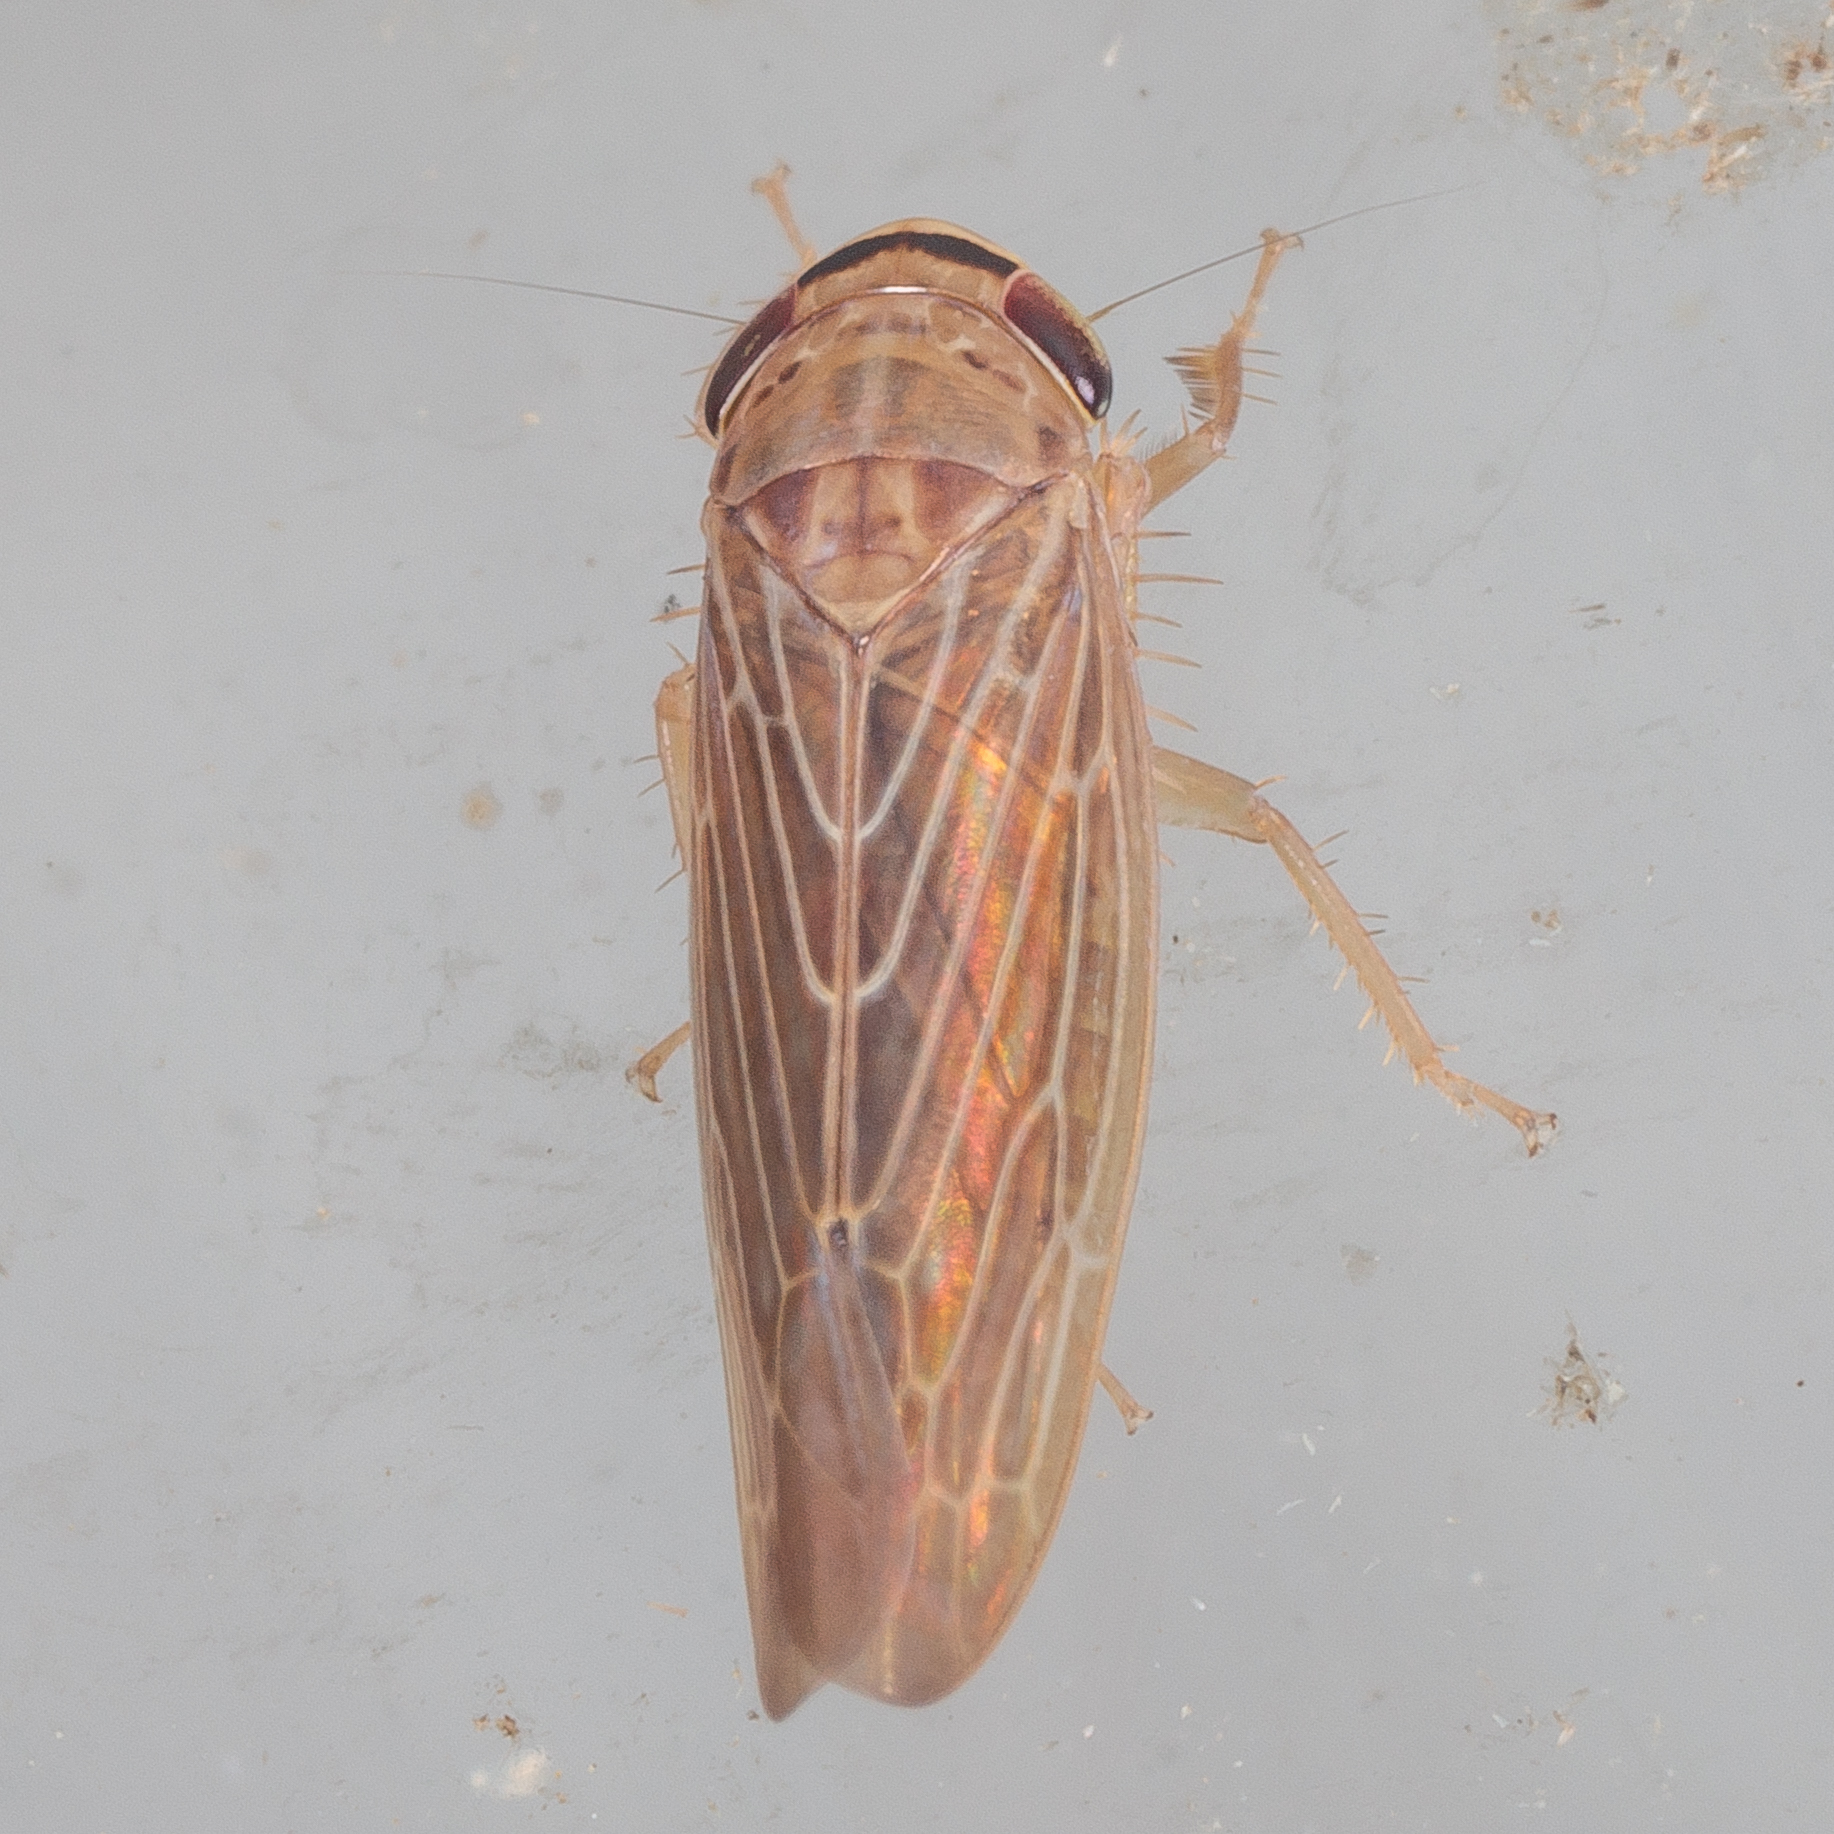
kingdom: Animalia
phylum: Arthropoda
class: Insecta
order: Hemiptera
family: Cicadellidae
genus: Chlorotettix
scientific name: Chlorotettix necopinus
